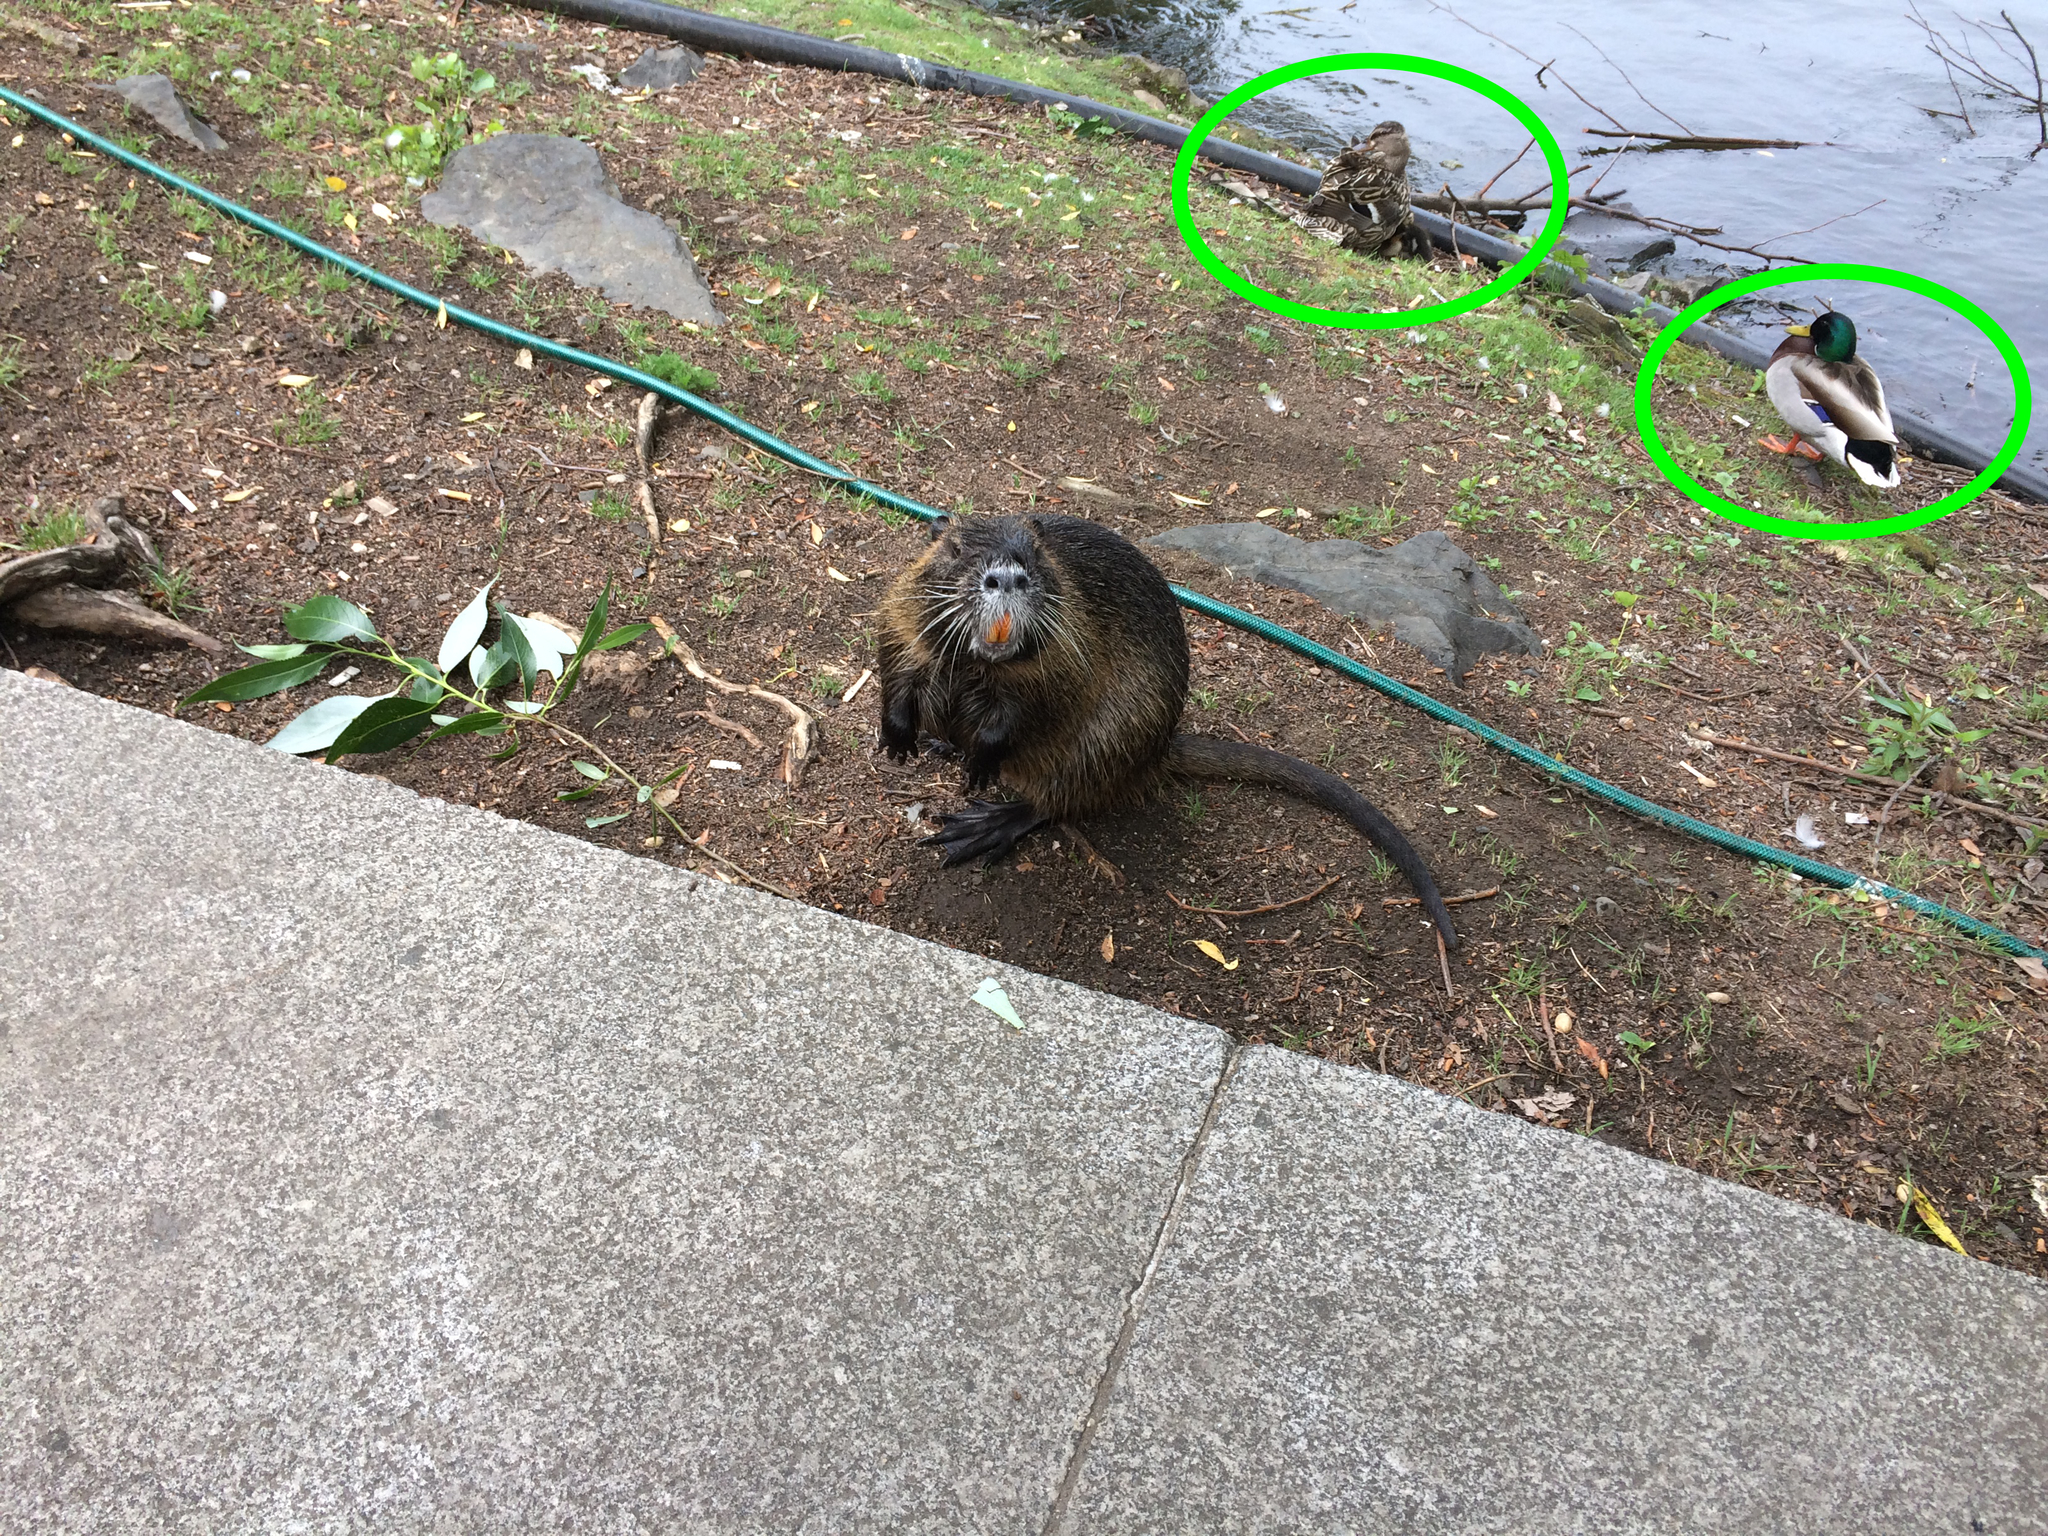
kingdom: Animalia
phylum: Chordata
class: Aves
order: Anseriformes
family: Anatidae
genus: Anas
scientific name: Anas platyrhynchos
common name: Mallard
